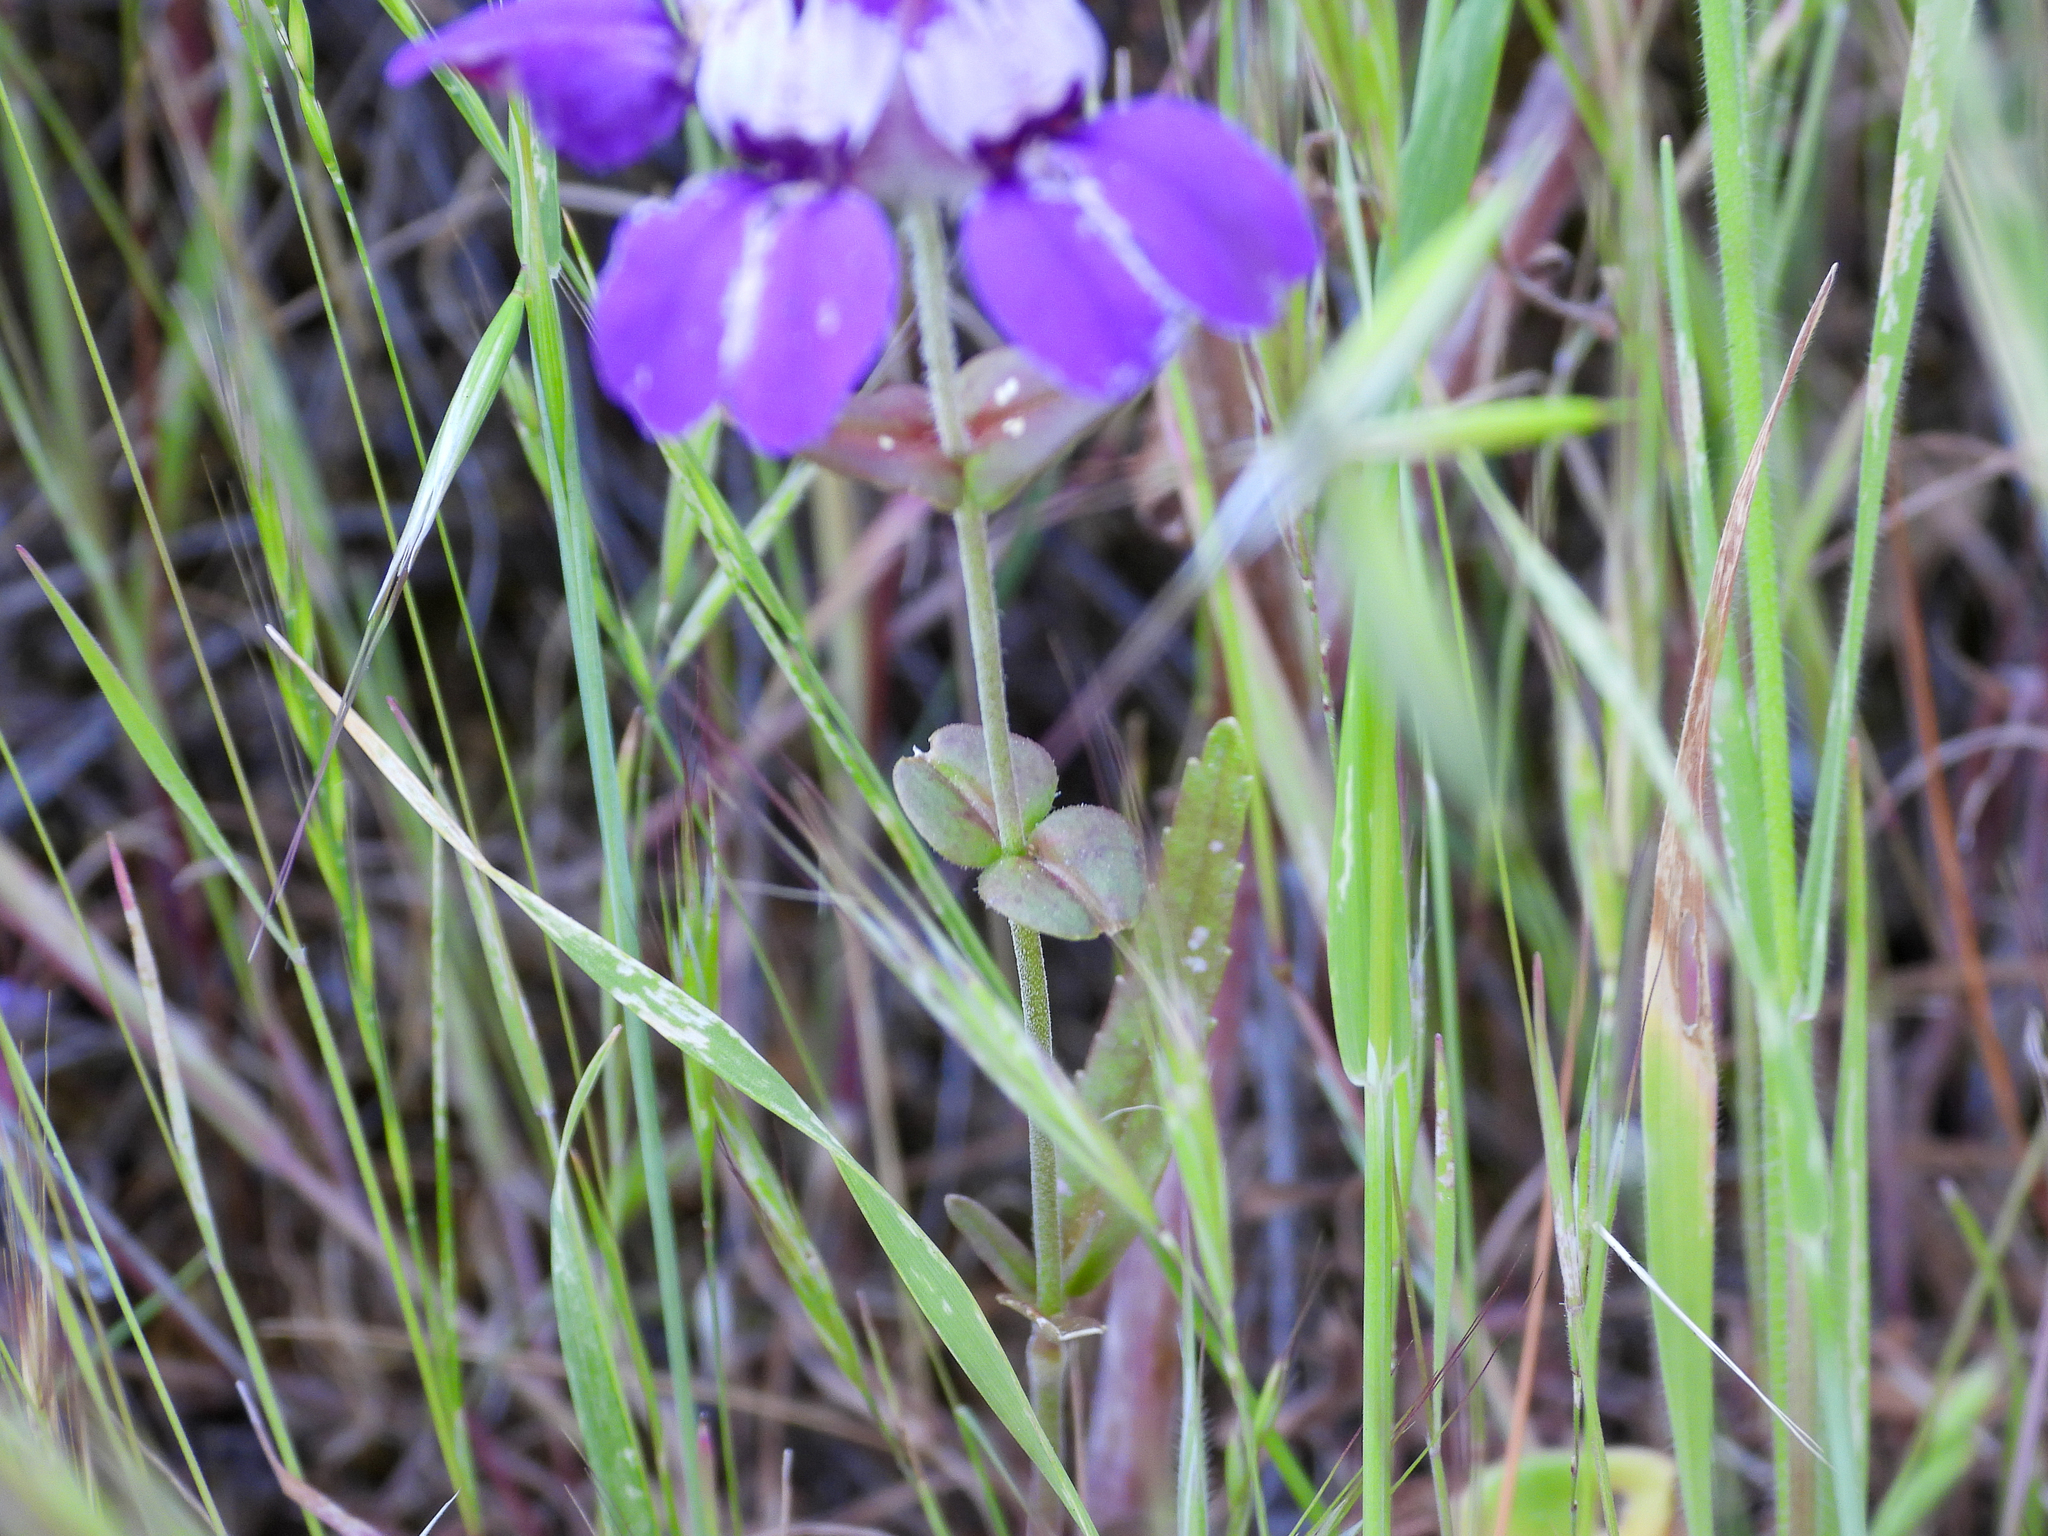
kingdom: Plantae
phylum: Tracheophyta
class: Magnoliopsida
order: Lamiales
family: Plantaginaceae
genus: Collinsia
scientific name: Collinsia heterophylla
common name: Chinese-houses
